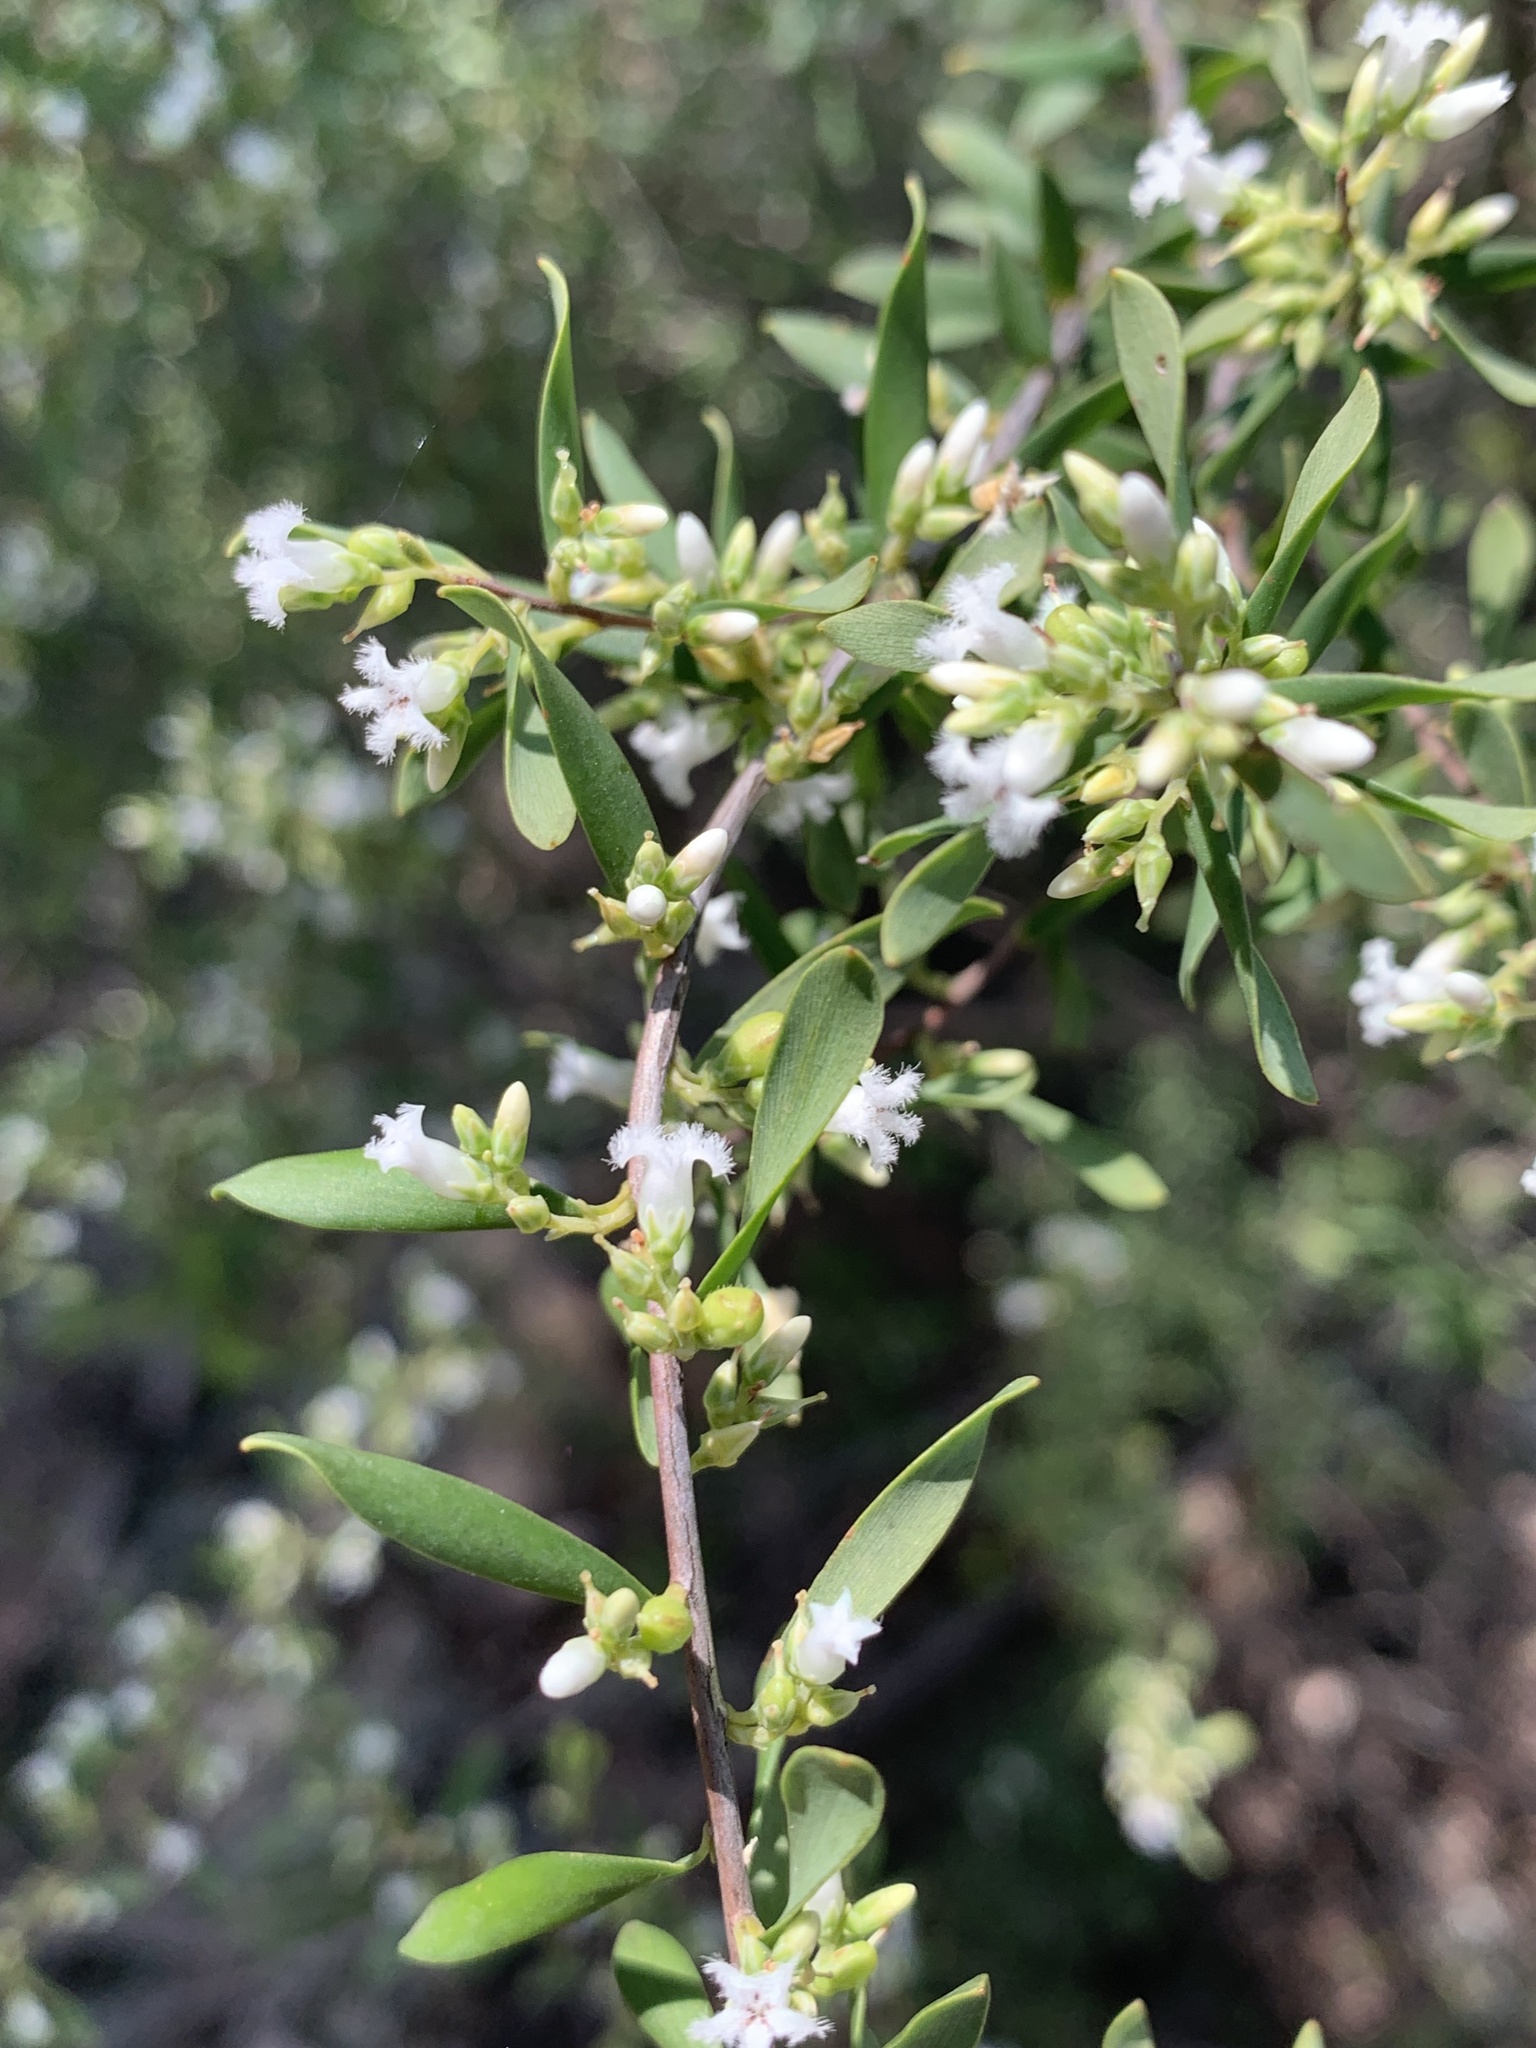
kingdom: Plantae
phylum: Tracheophyta
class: Magnoliopsida
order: Ericales
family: Ericaceae
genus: Styphelia
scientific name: Styphelia mutica
